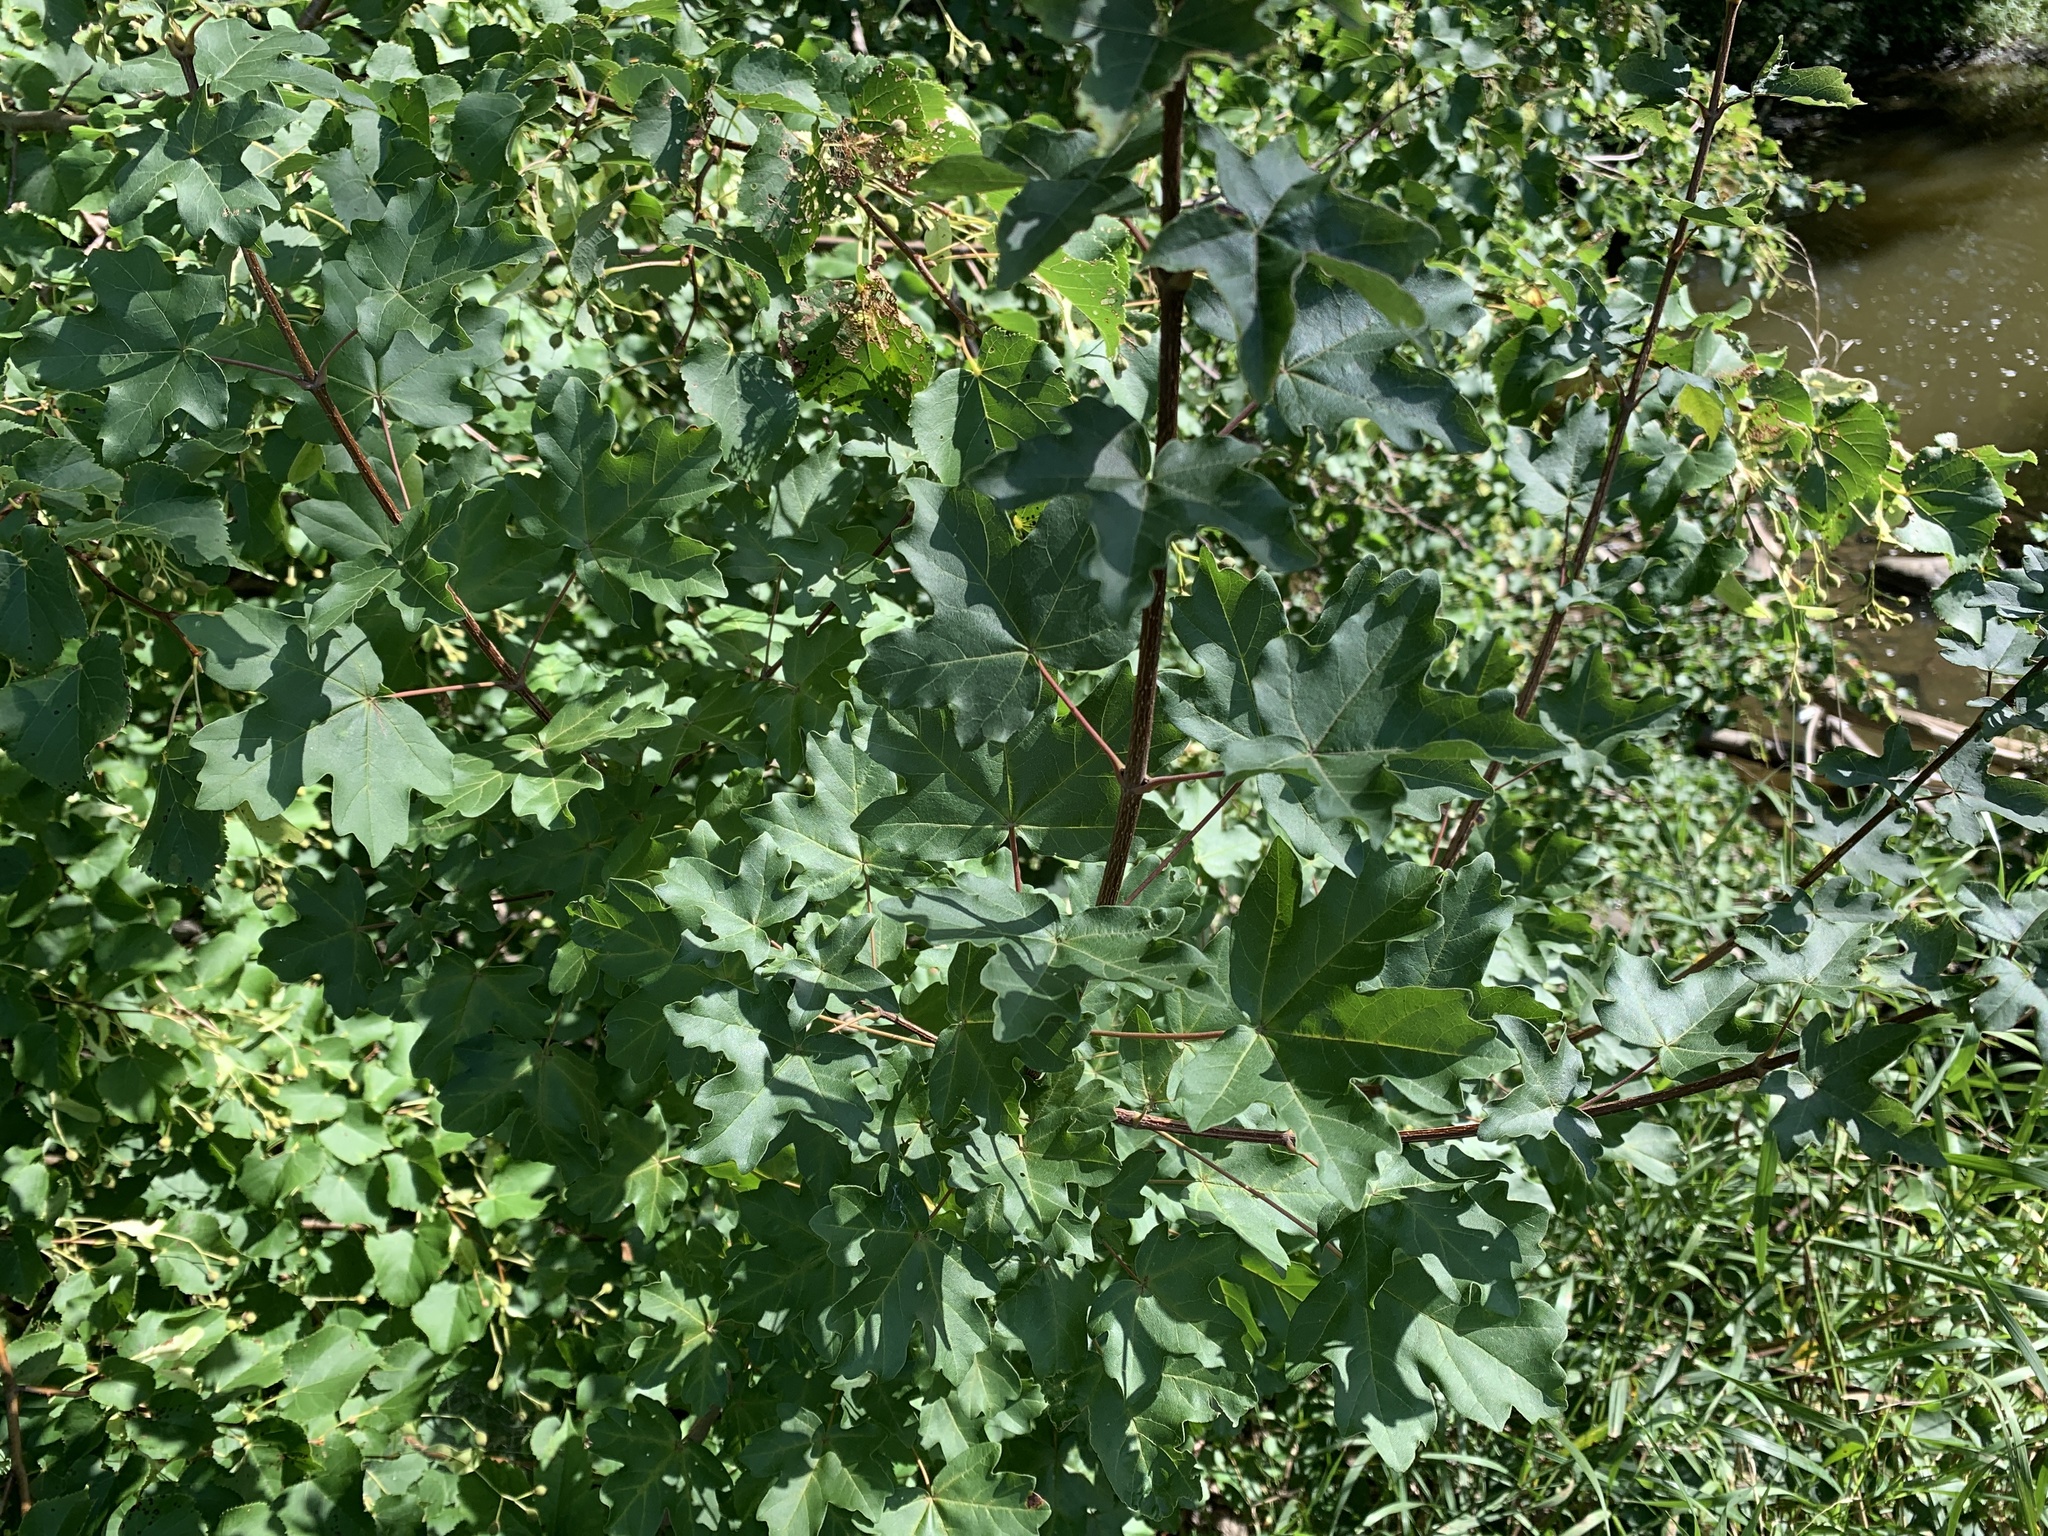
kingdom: Plantae
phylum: Tracheophyta
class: Magnoliopsida
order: Sapindales
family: Sapindaceae
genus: Acer
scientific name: Acer campestre
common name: Field maple
